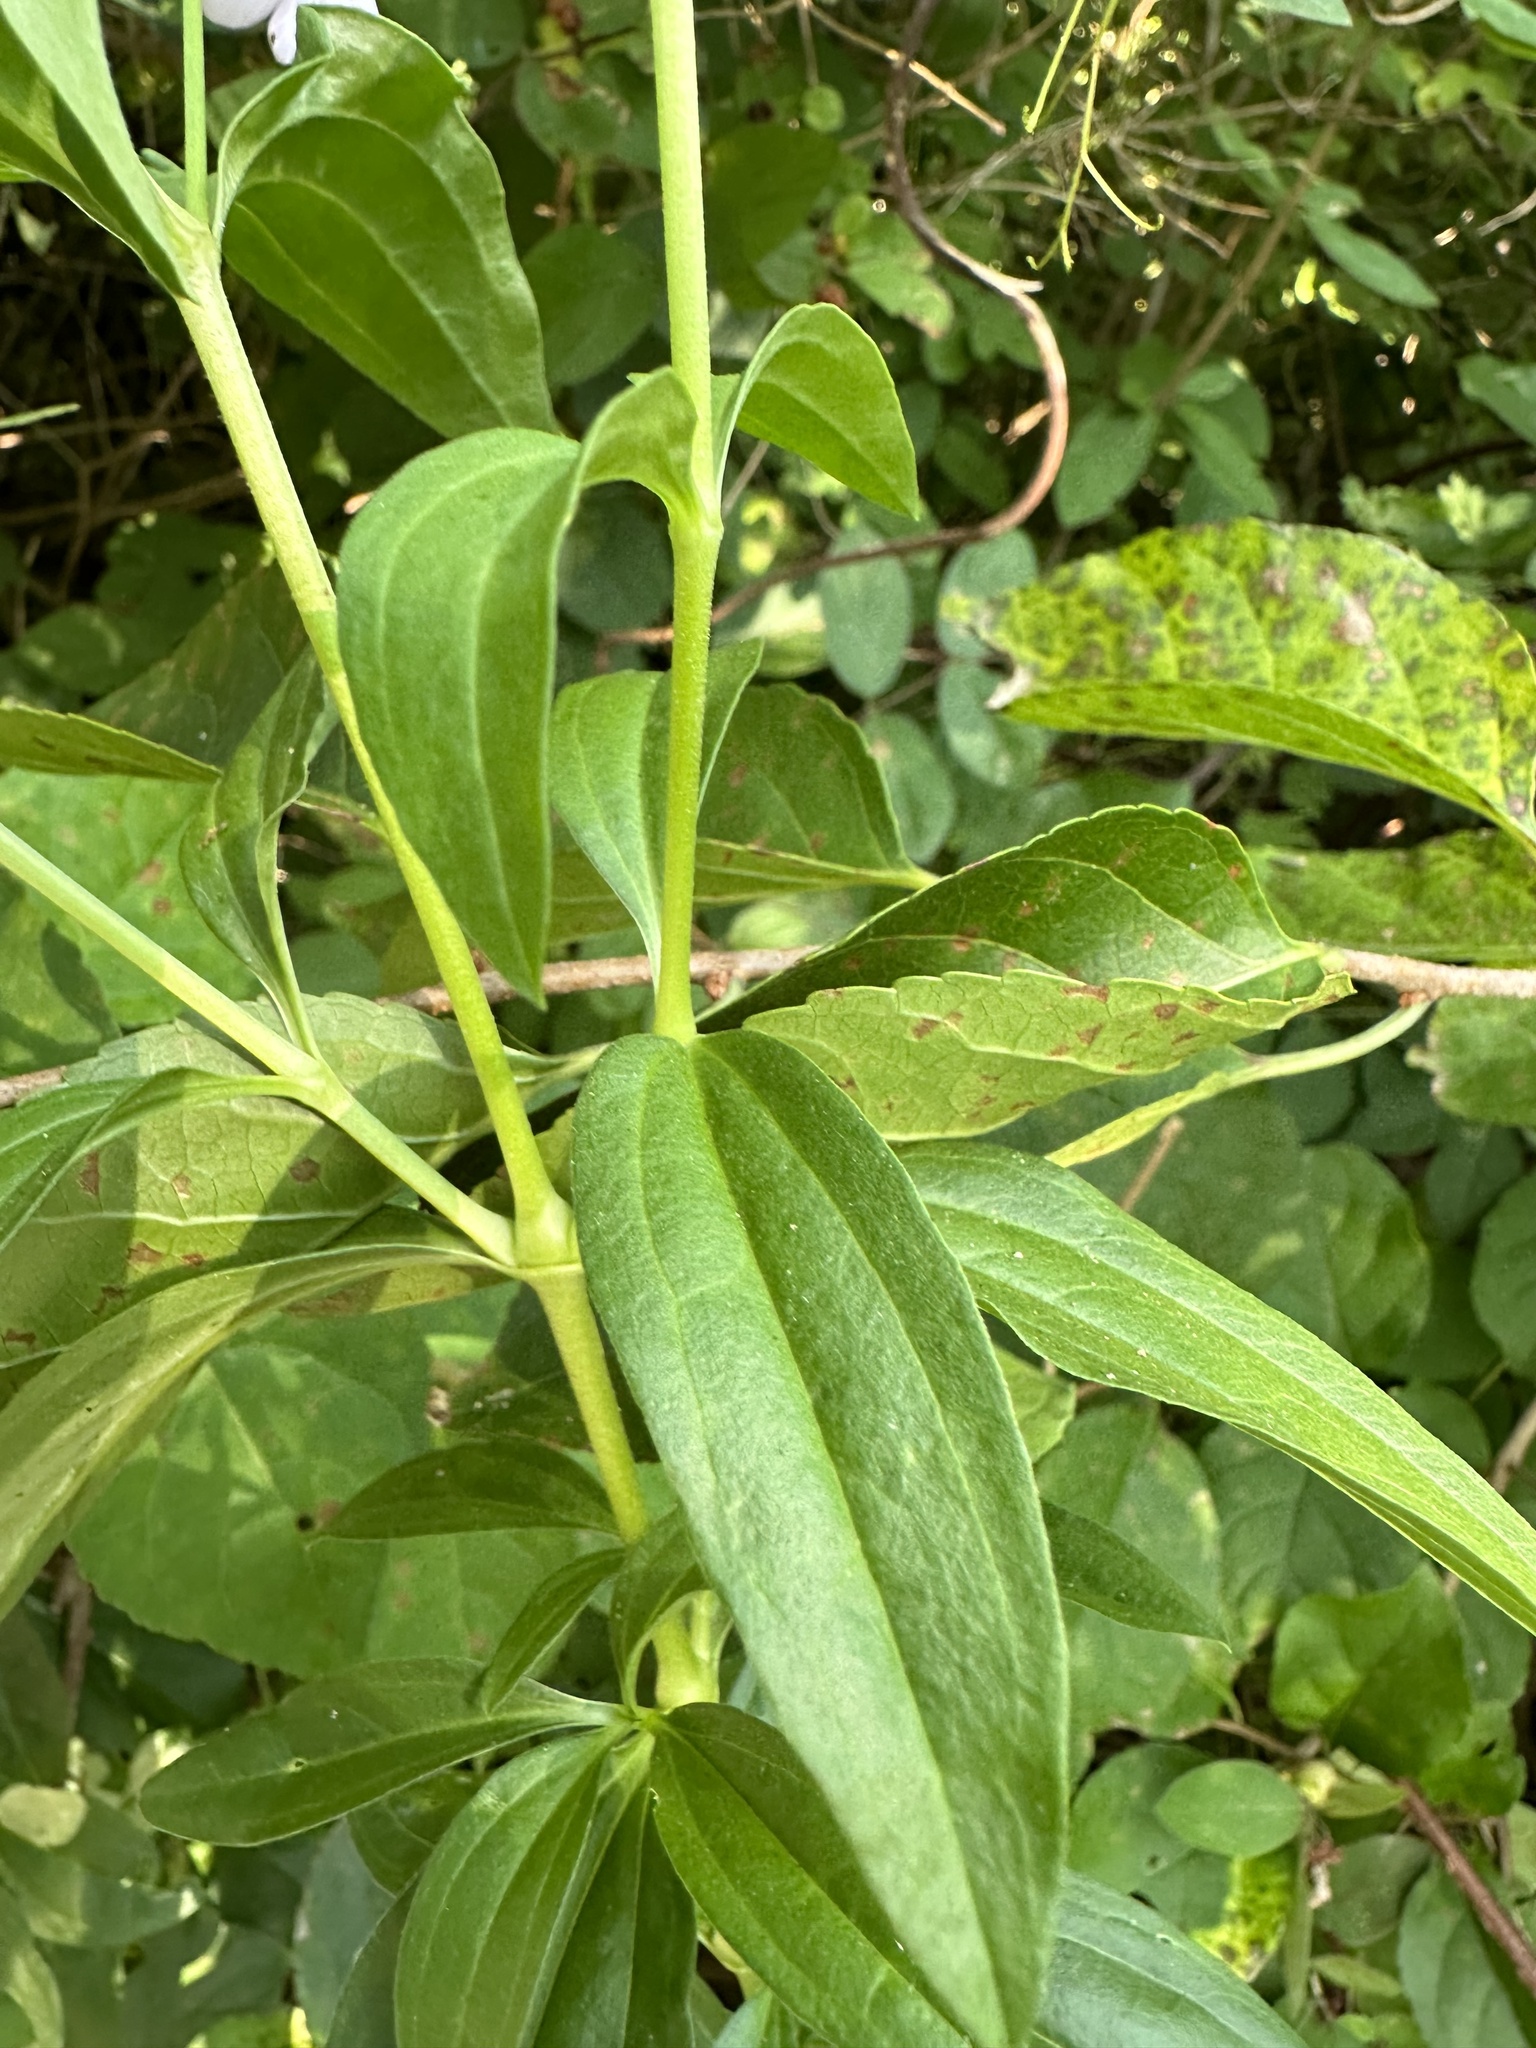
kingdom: Plantae
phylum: Tracheophyta
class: Magnoliopsida
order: Caryophyllales
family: Caryophyllaceae
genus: Saponaria
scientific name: Saponaria officinalis
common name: Soapwort
